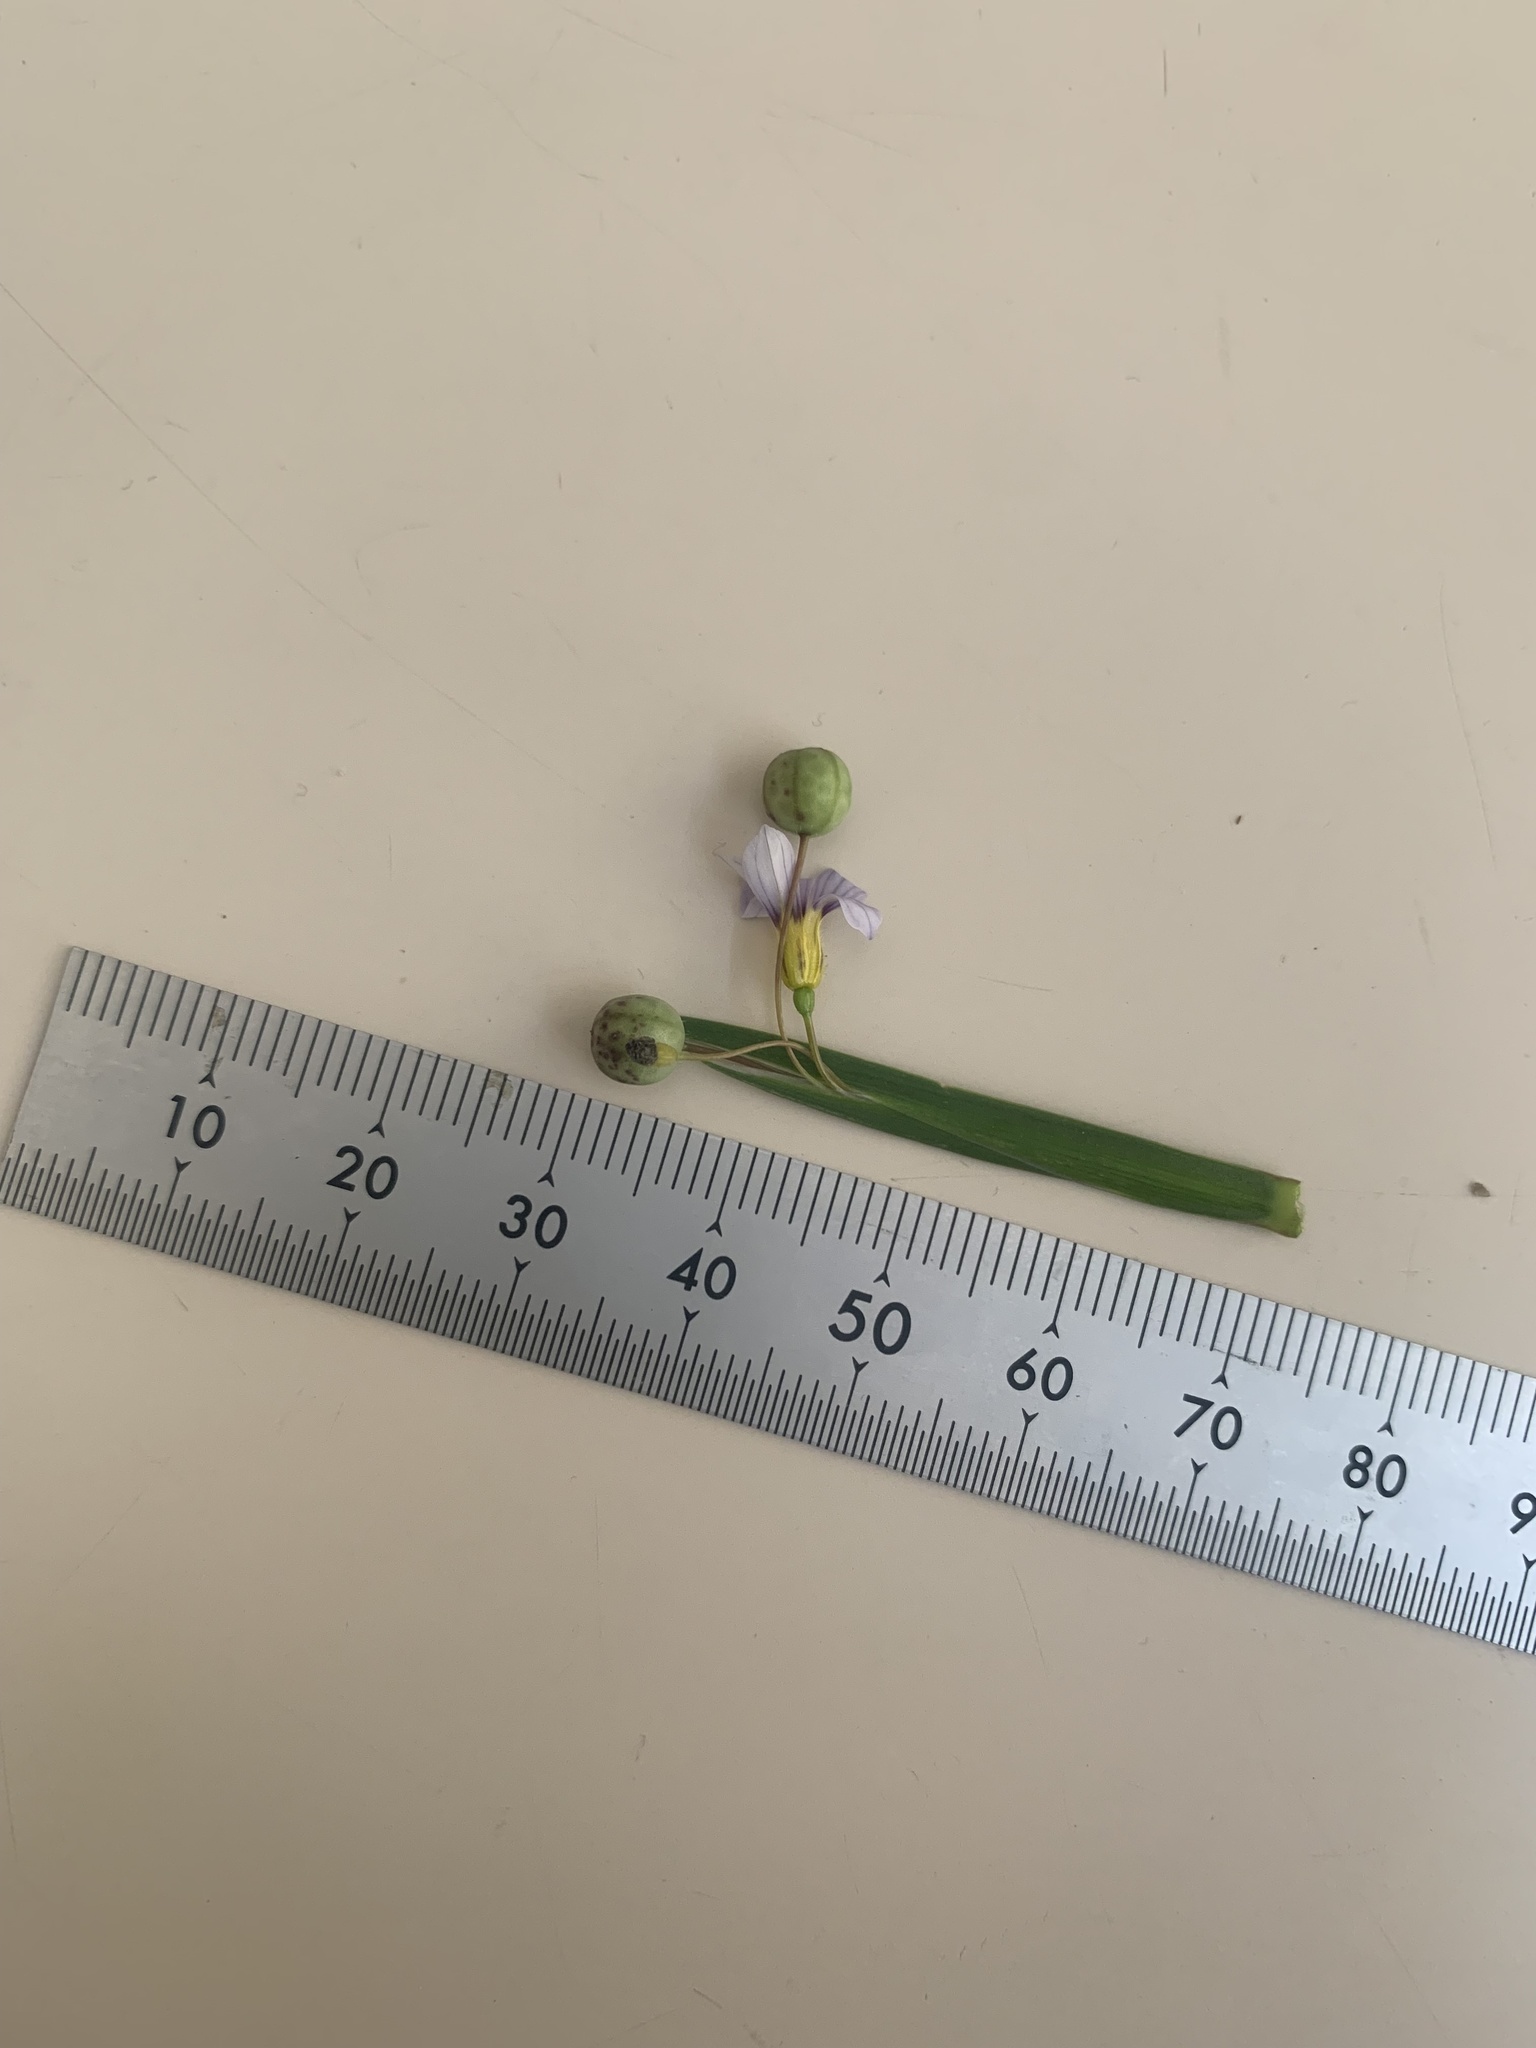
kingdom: Plantae
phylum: Tracheophyta
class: Liliopsida
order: Asparagales
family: Iridaceae
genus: Sisyrinchium
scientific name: Sisyrinchium micranthum
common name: Bermuda pigroot
